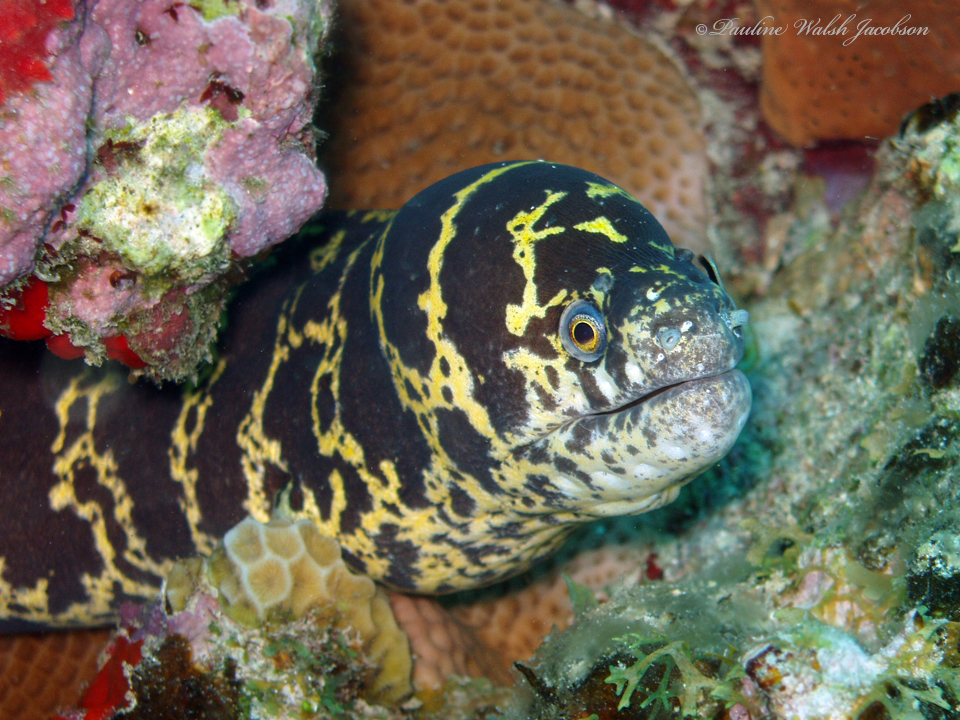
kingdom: Animalia
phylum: Chordata
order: Anguilliformes
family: Muraenidae
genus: Echidna
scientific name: Echidna catenata
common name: Chain moray
